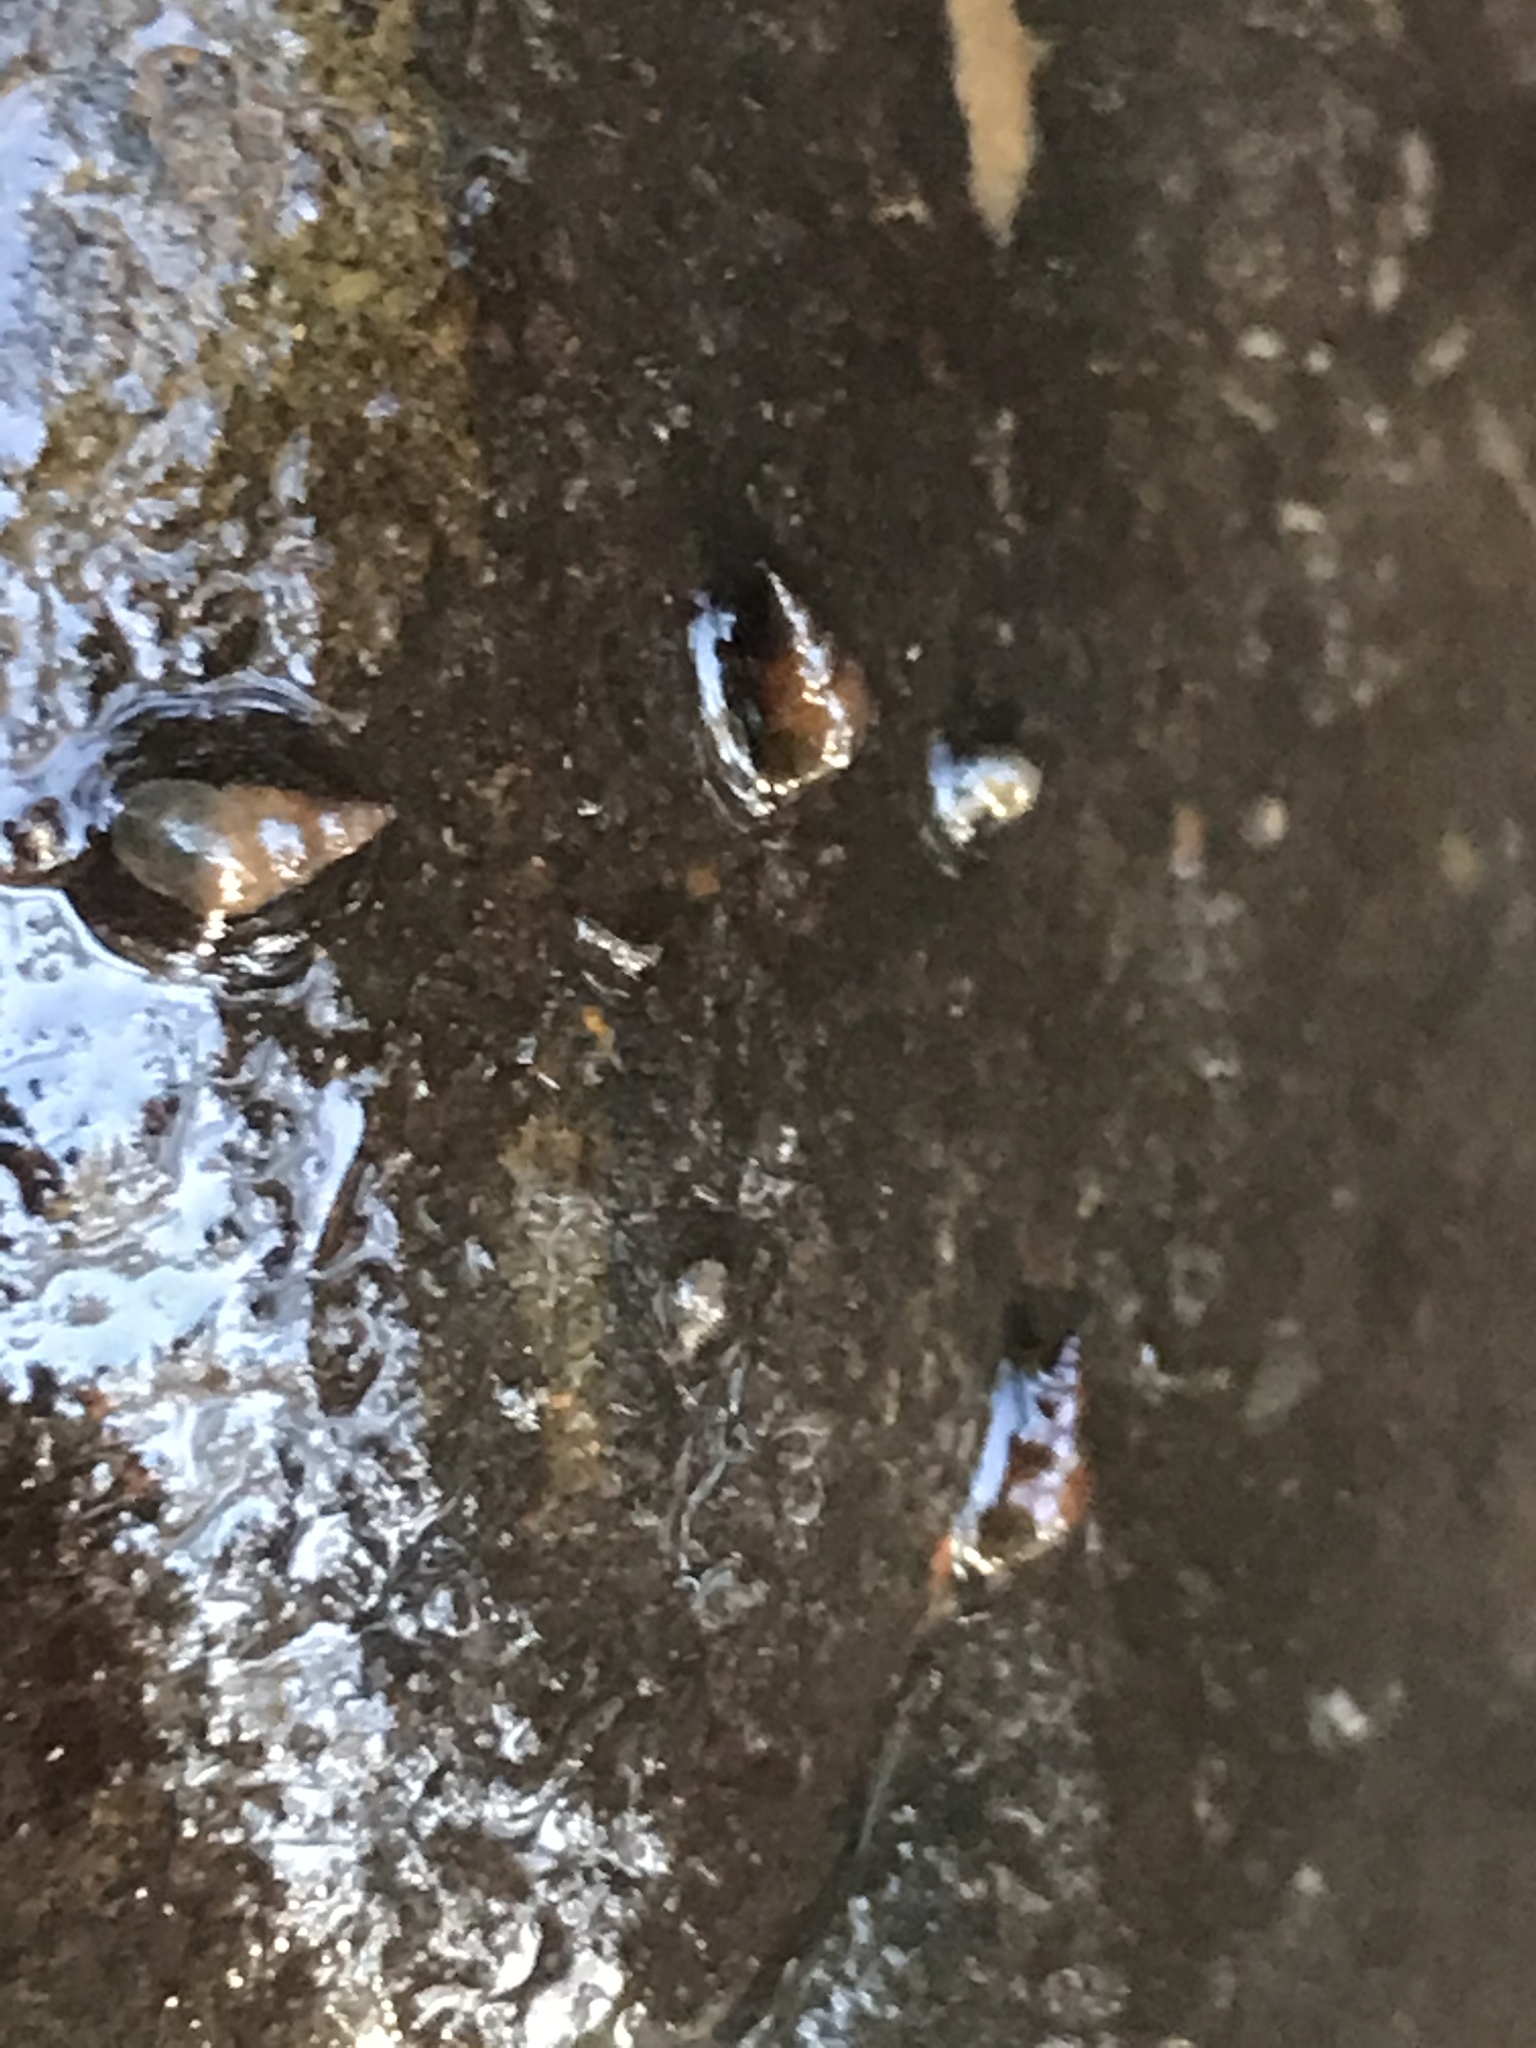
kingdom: Animalia
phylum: Mollusca
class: Gastropoda
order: Littorinimorpha
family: Tateidae
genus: Potamopyrgus
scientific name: Potamopyrgus antipodarum
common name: Jenkins' spire snail
